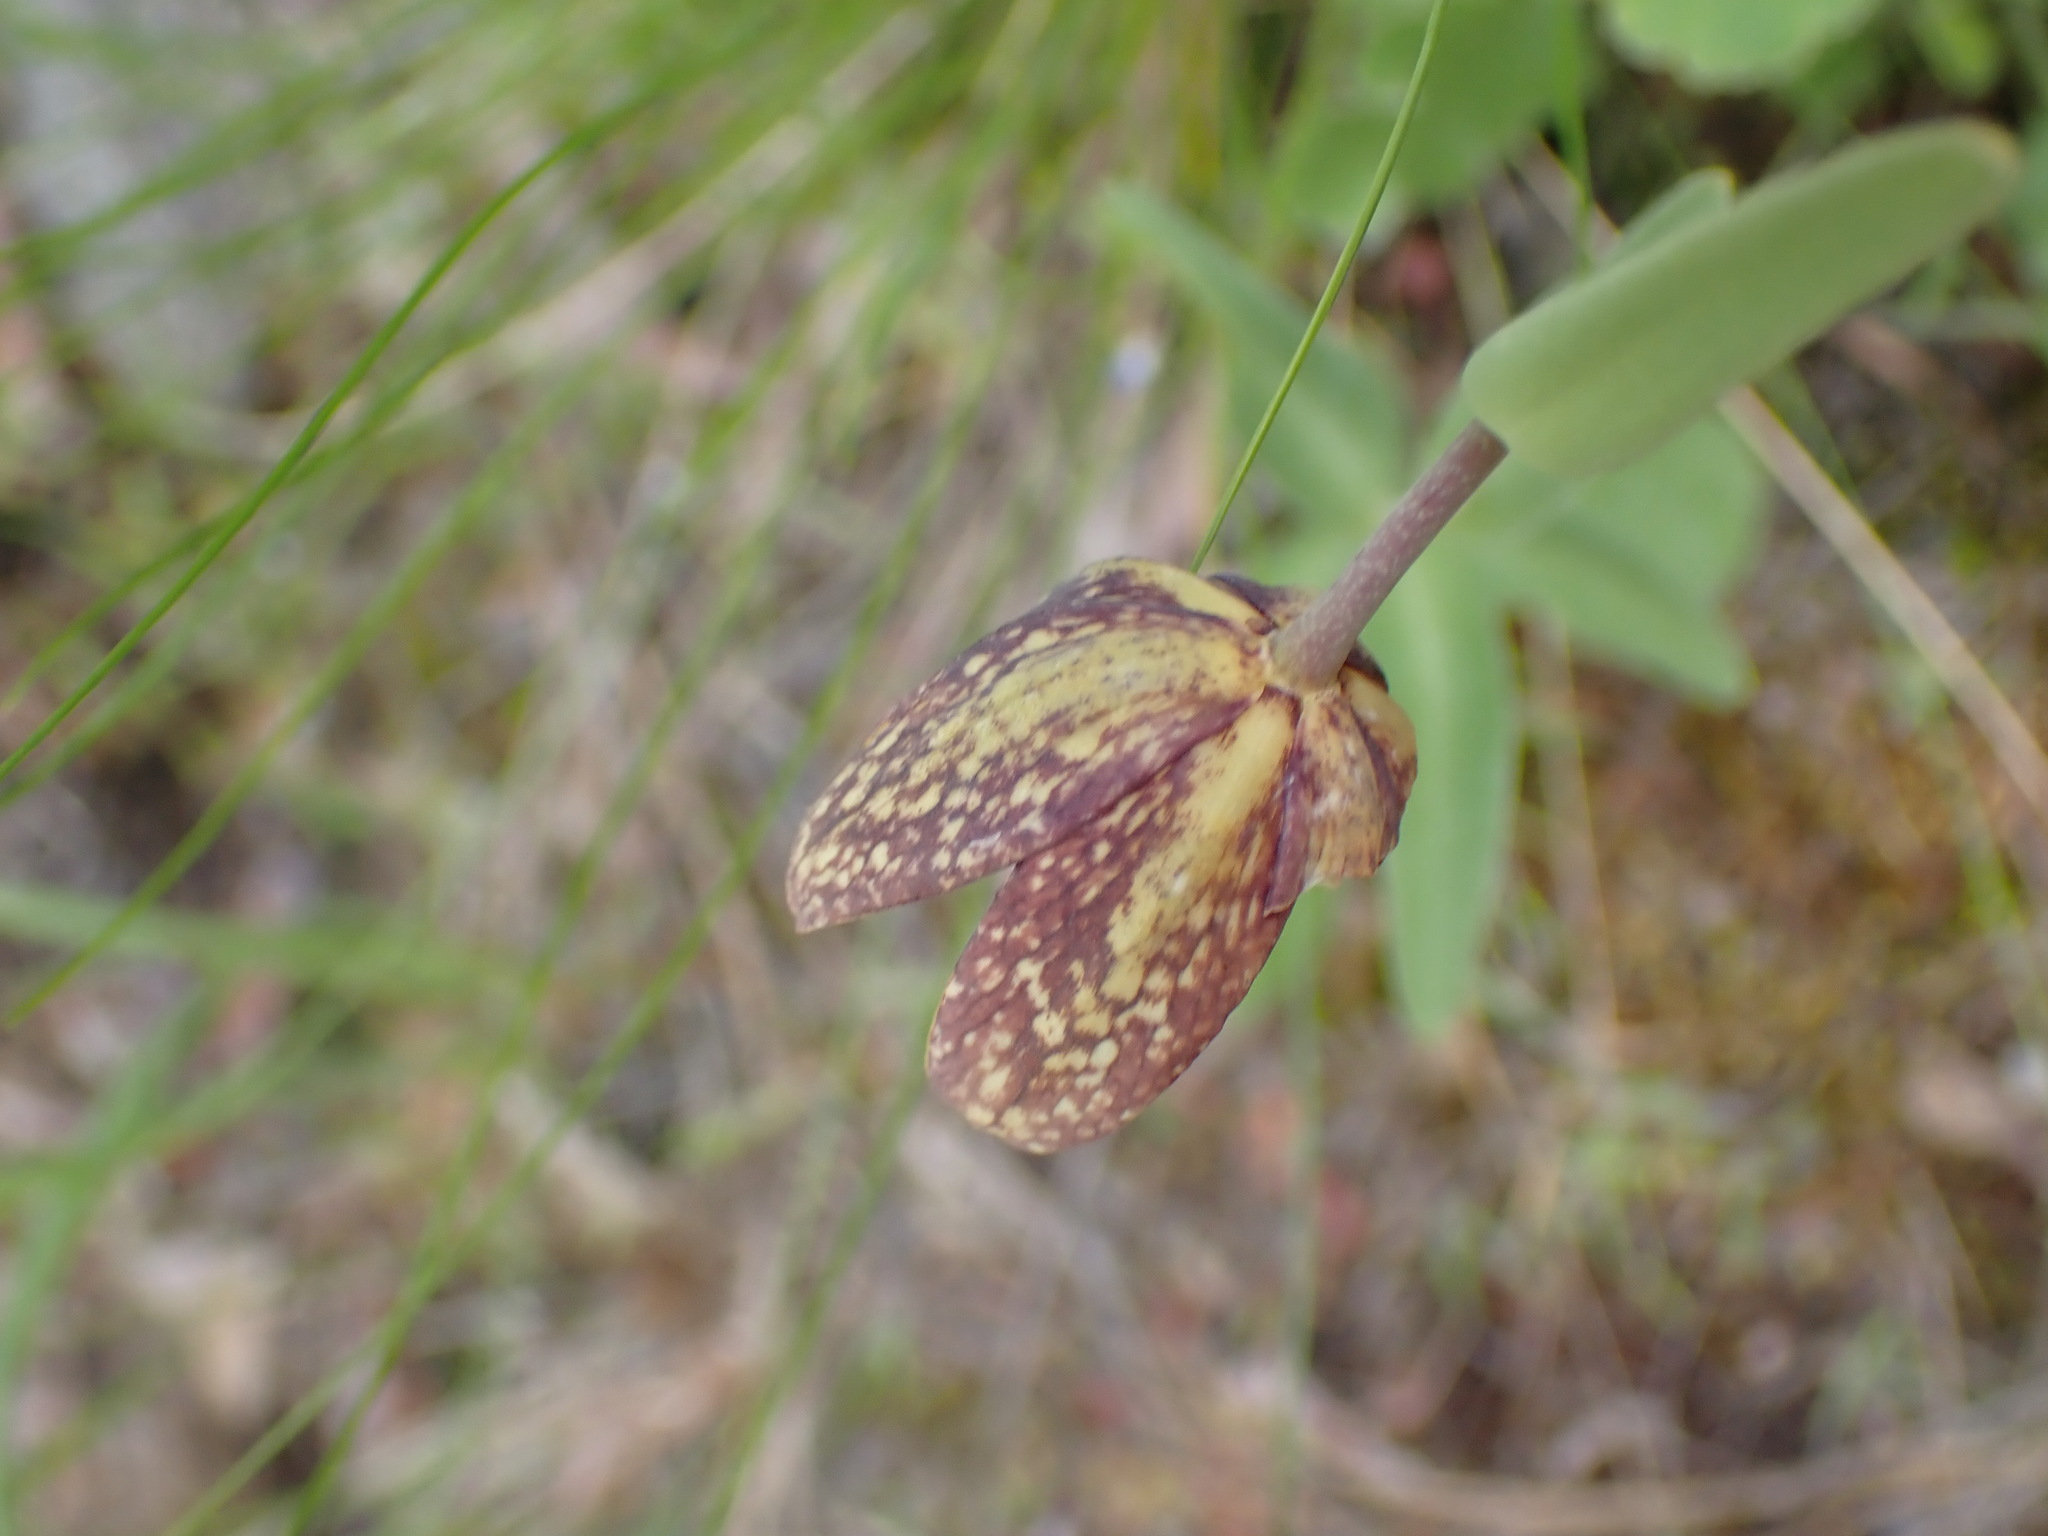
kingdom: Plantae
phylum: Tracheophyta
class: Liliopsida
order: Liliales
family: Liliaceae
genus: Fritillaria
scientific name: Fritillaria affinis
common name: Ojai fritillary
